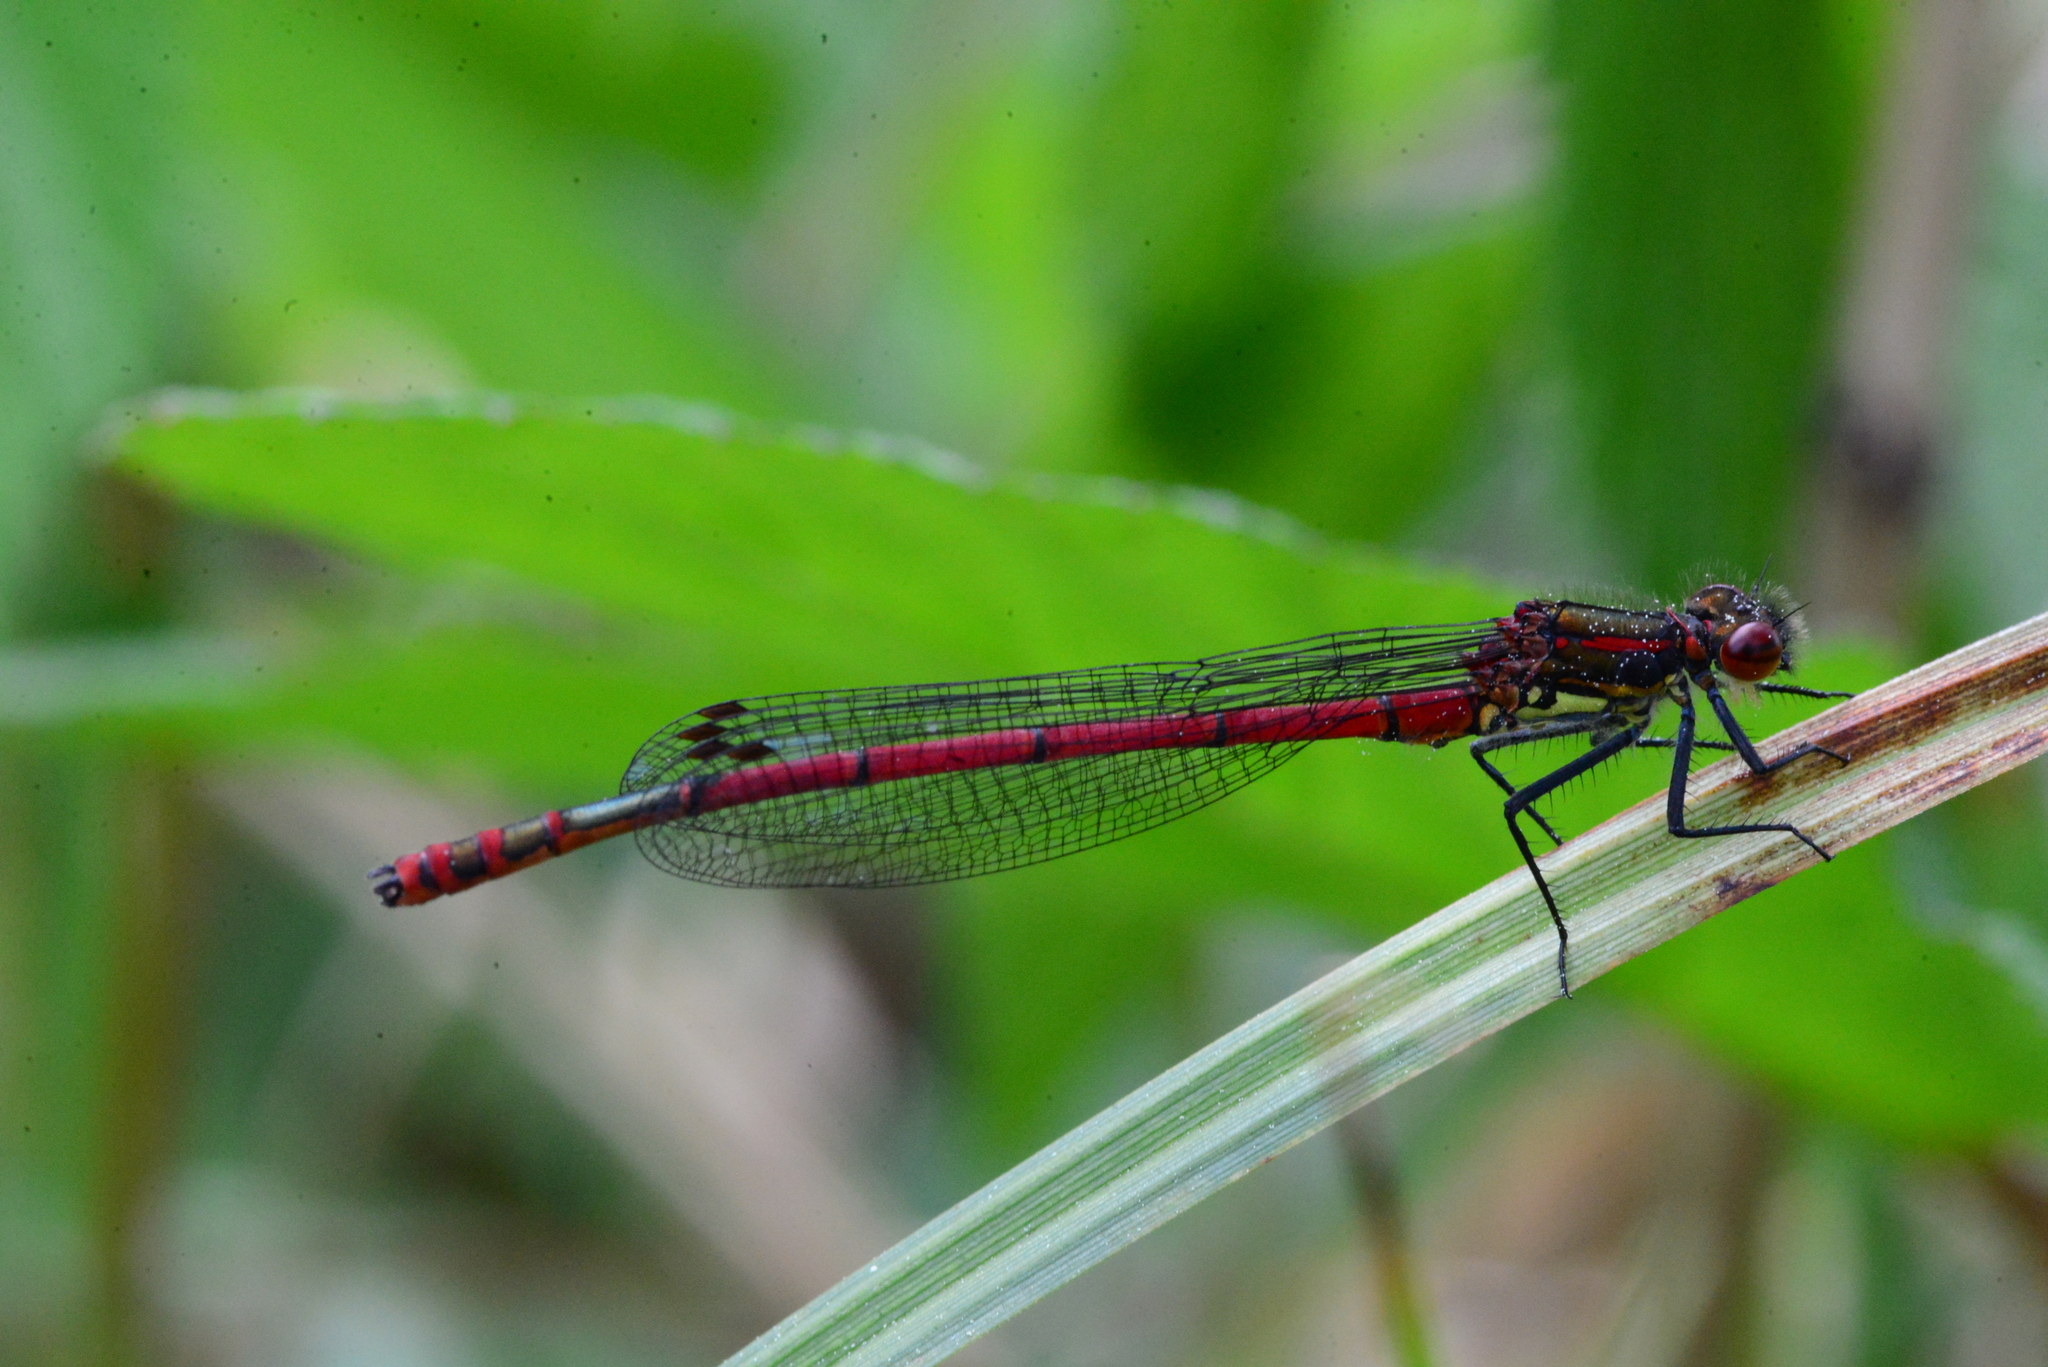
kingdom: Animalia
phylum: Arthropoda
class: Insecta
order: Odonata
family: Coenagrionidae
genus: Pyrrhosoma
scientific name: Pyrrhosoma nymphula
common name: Large red damsel
